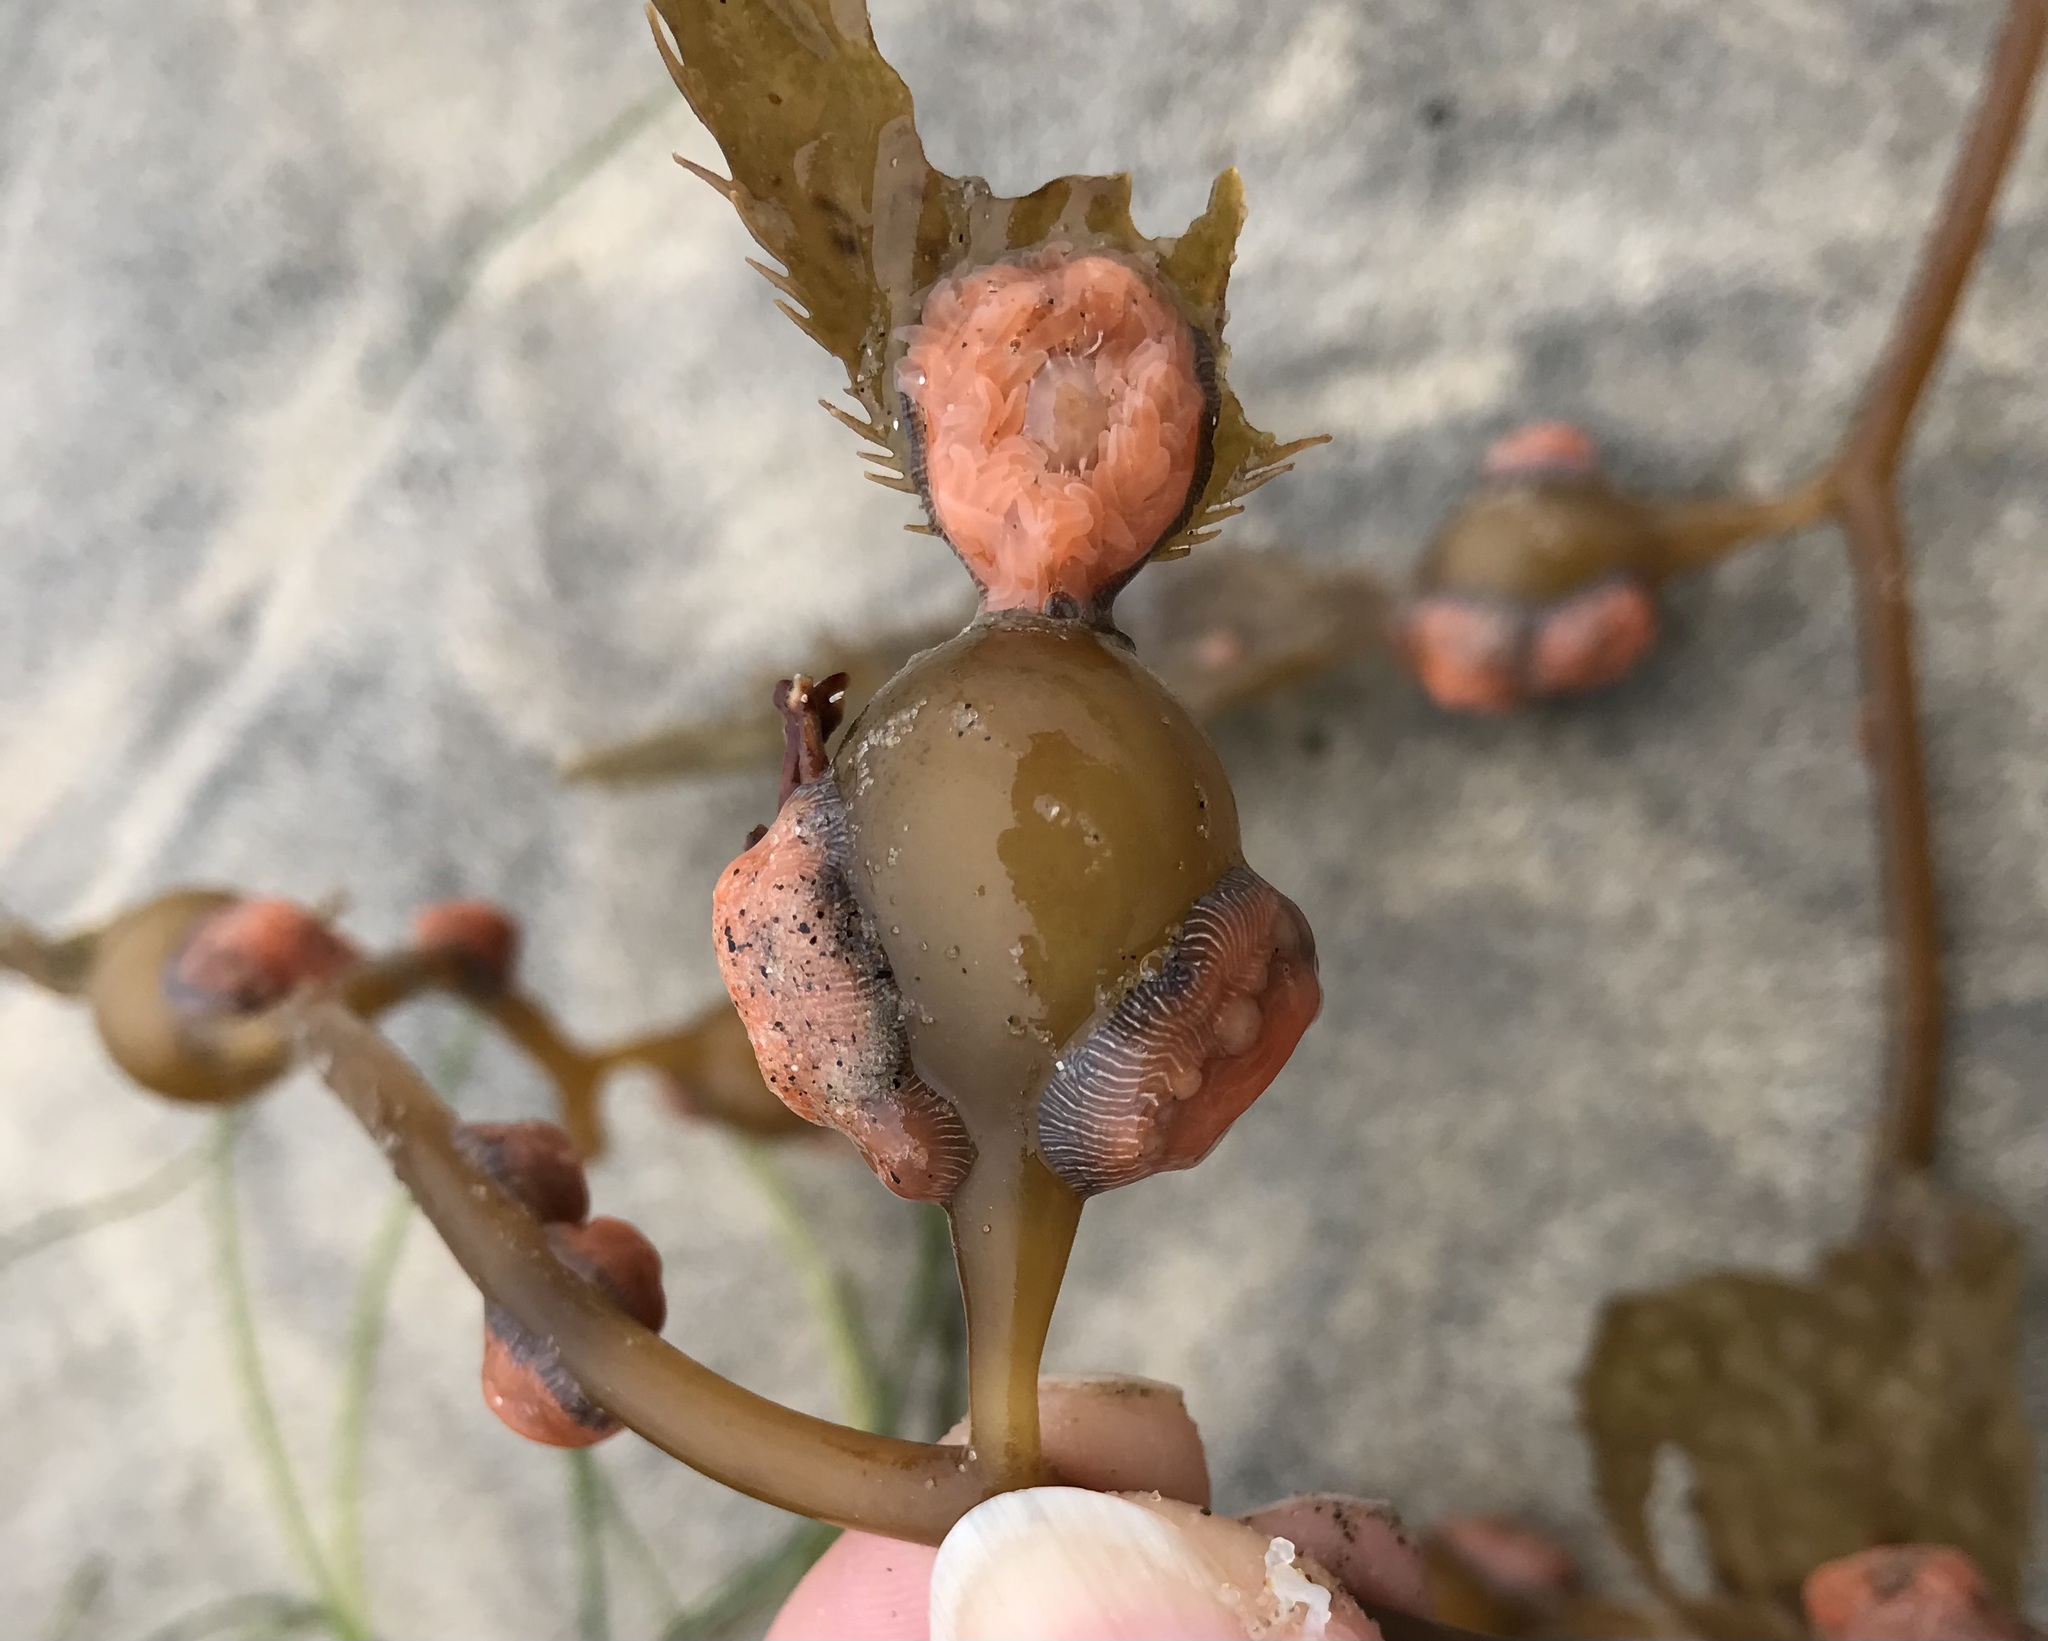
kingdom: Animalia
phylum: Cnidaria
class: Anthozoa
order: Actiniaria
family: Actiniidae
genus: Epiactis
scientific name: Epiactis prolifera
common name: Brooding anemone
